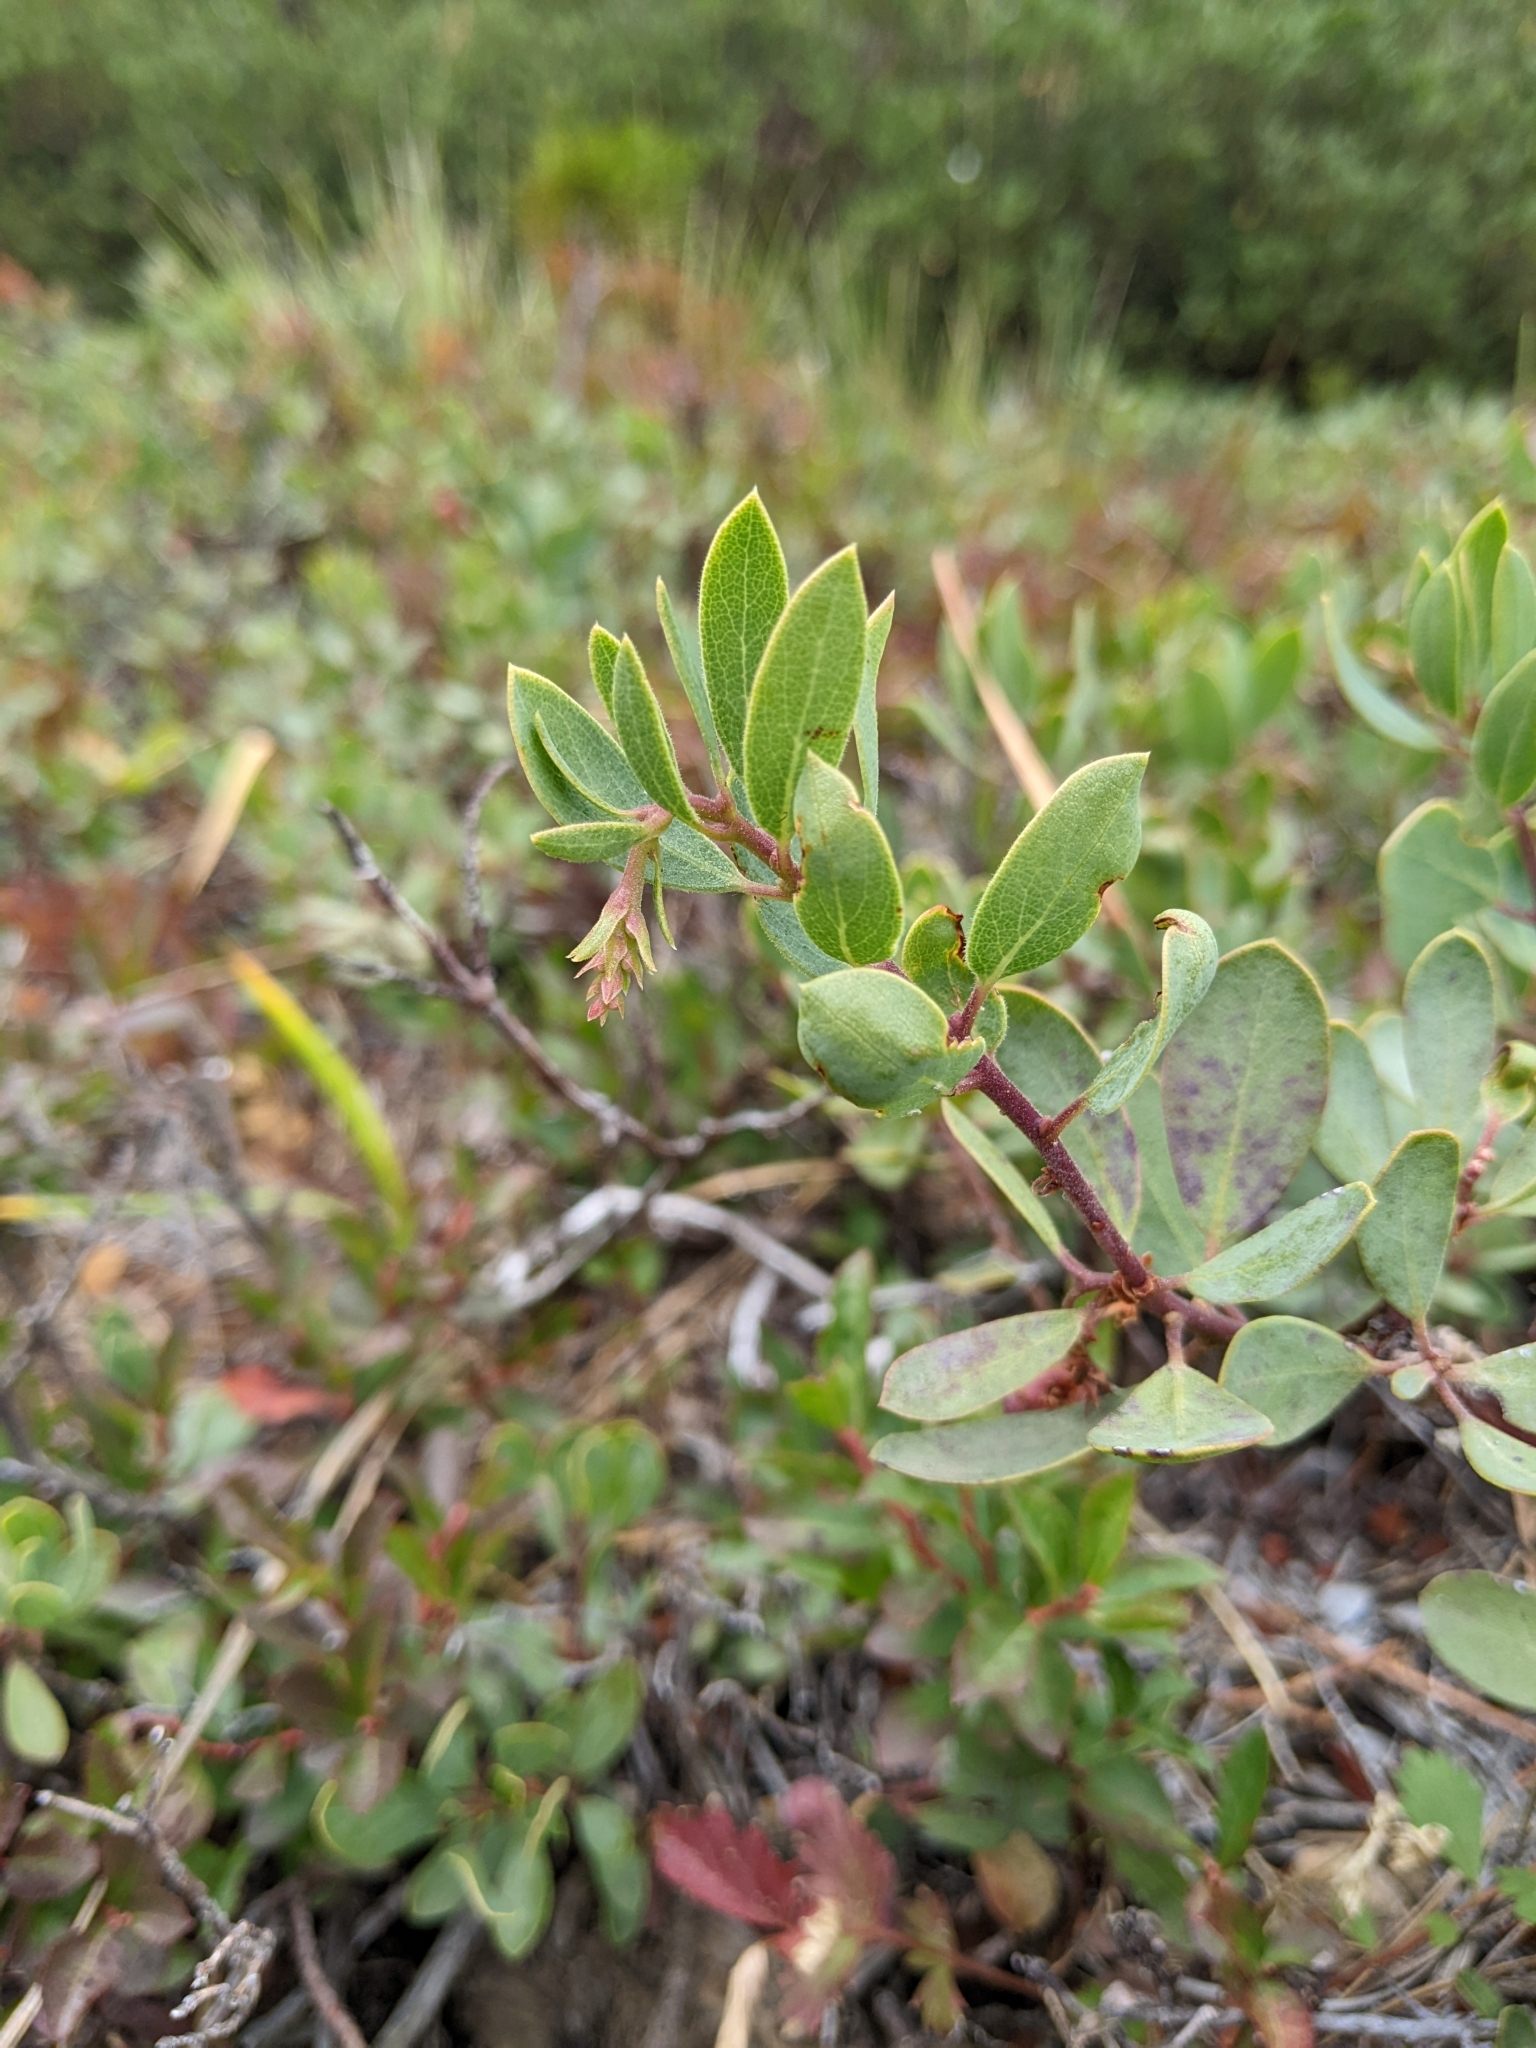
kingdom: Plantae
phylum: Tracheophyta
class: Magnoliopsida
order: Ericales
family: Ericaceae
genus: Arctostaphylos
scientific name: Arctostaphylos nevadensis
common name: Pinemat manzanita
